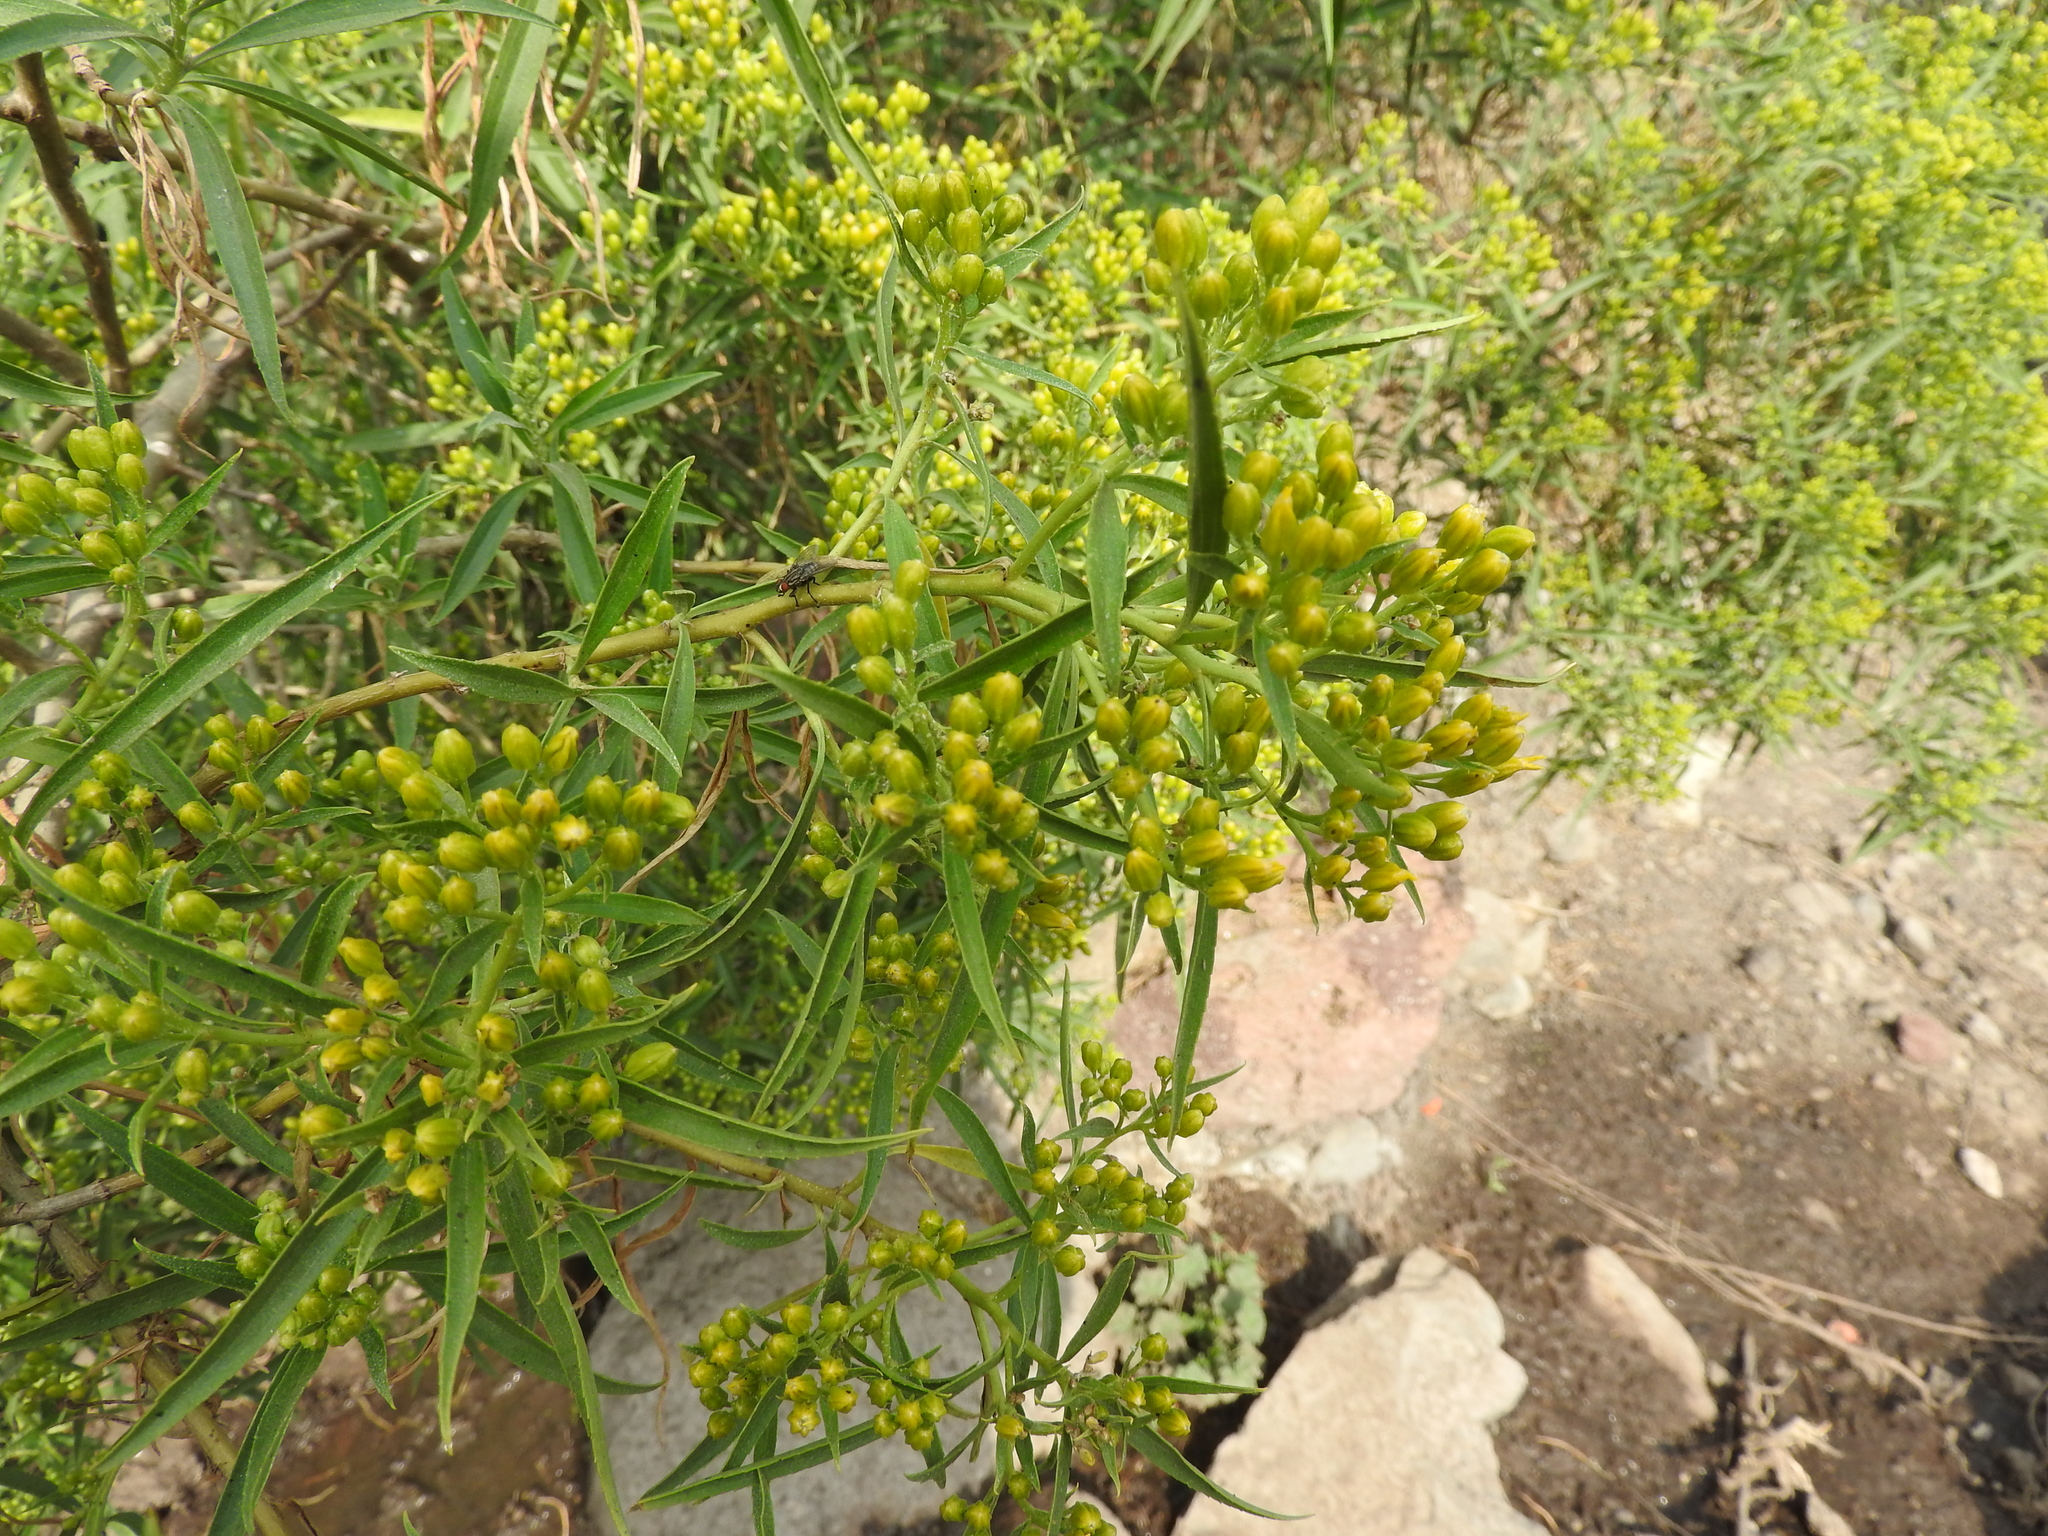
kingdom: Plantae
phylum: Tracheophyta
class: Magnoliopsida
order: Asterales
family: Asteraceae
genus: Barkleyanthus
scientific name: Barkleyanthus salicifolius
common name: Willow ragwort
